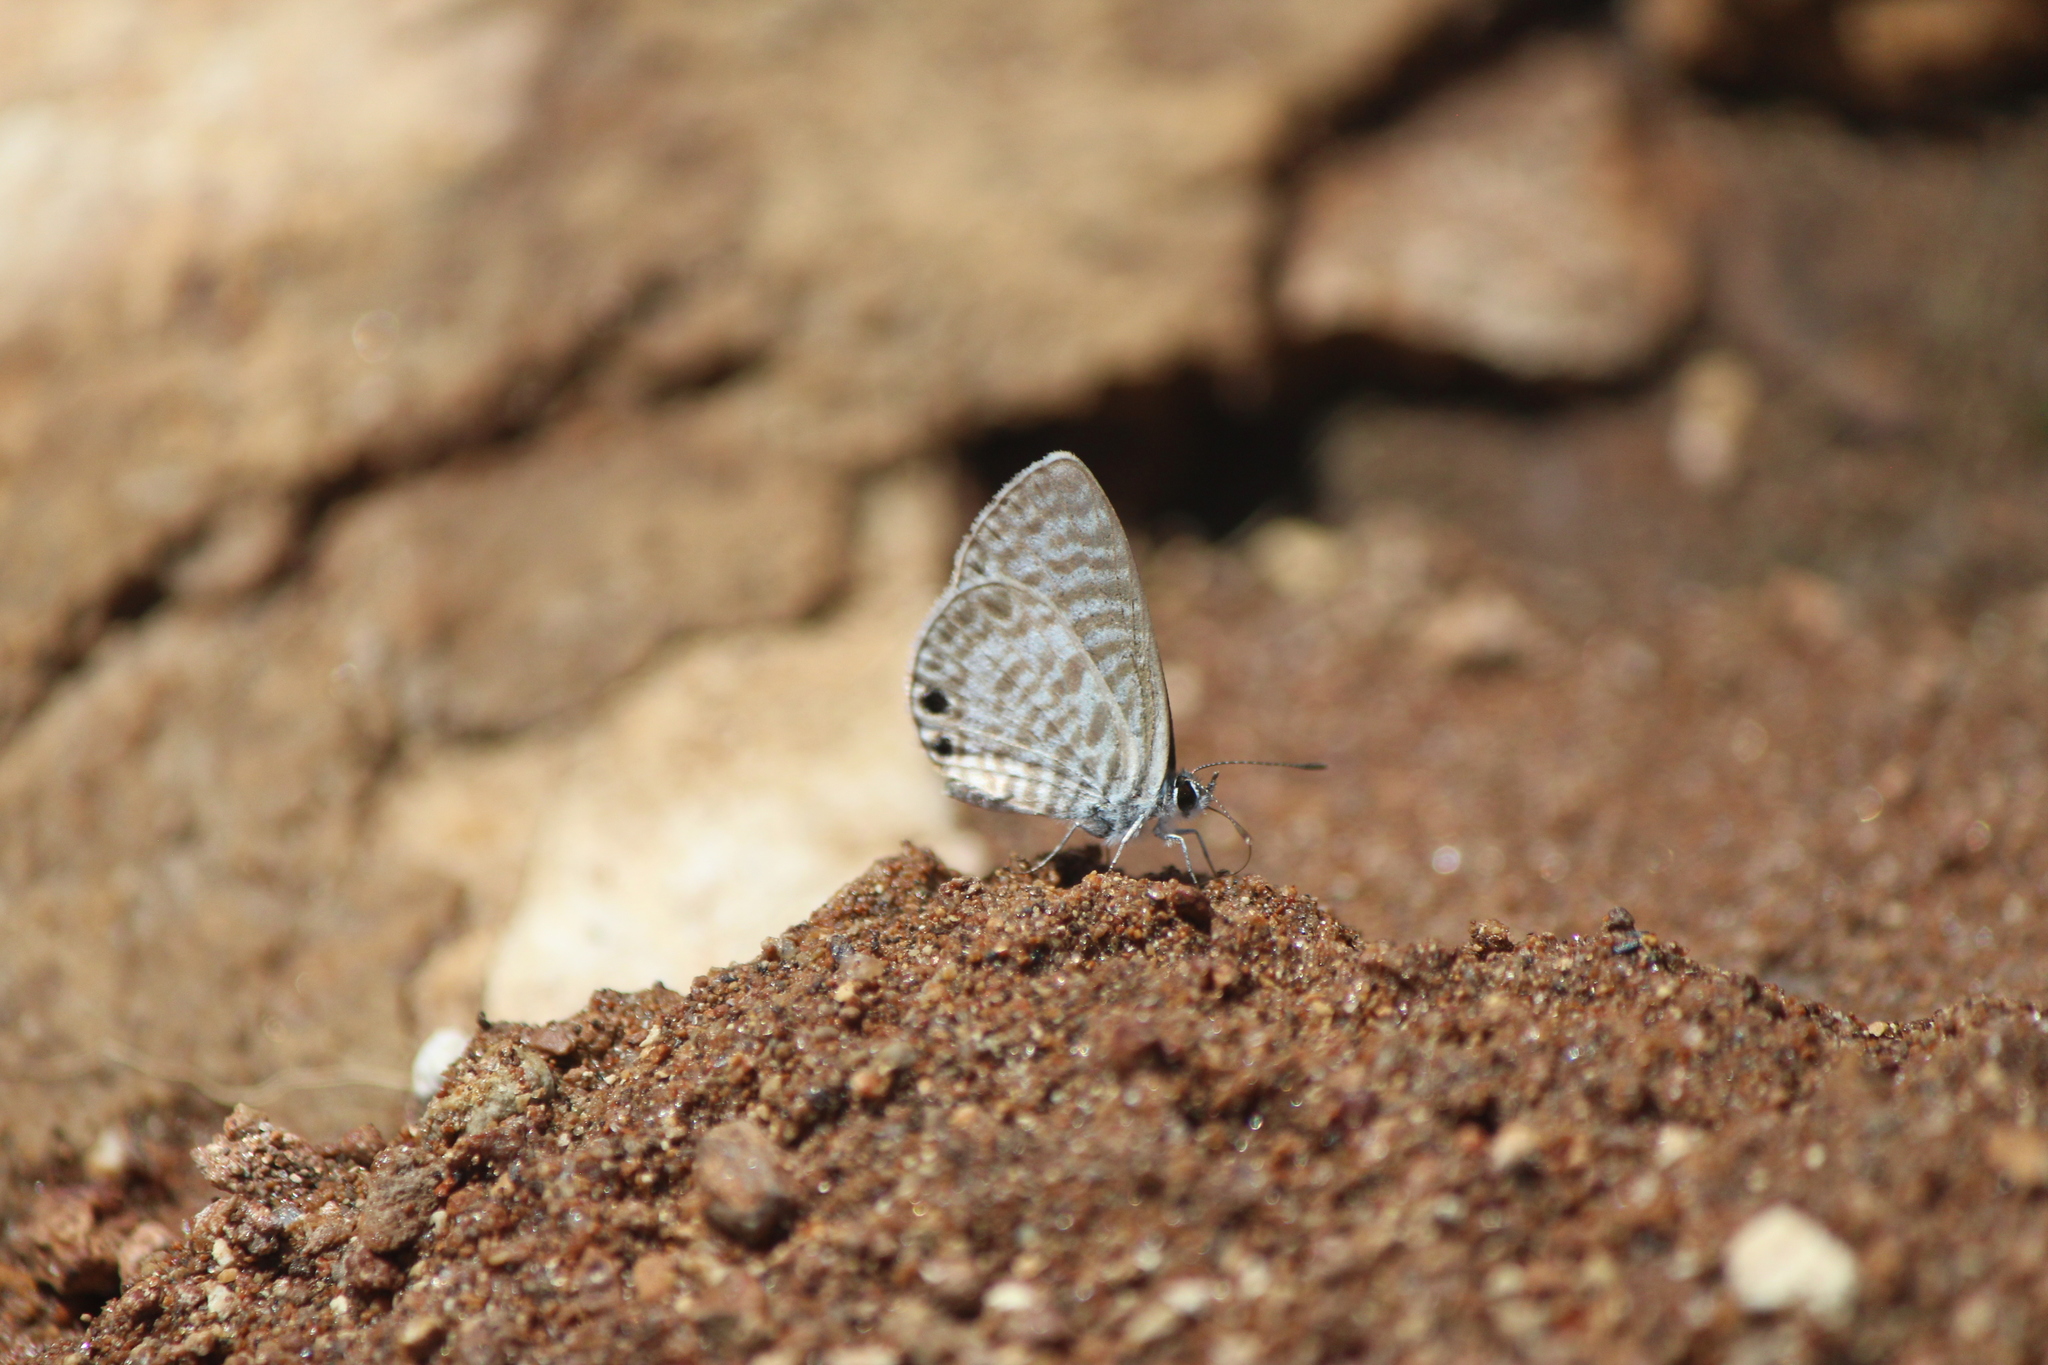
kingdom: Animalia
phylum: Arthropoda
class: Insecta
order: Lepidoptera
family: Lycaenidae
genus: Leptotes
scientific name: Leptotes marina
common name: Marine blue
